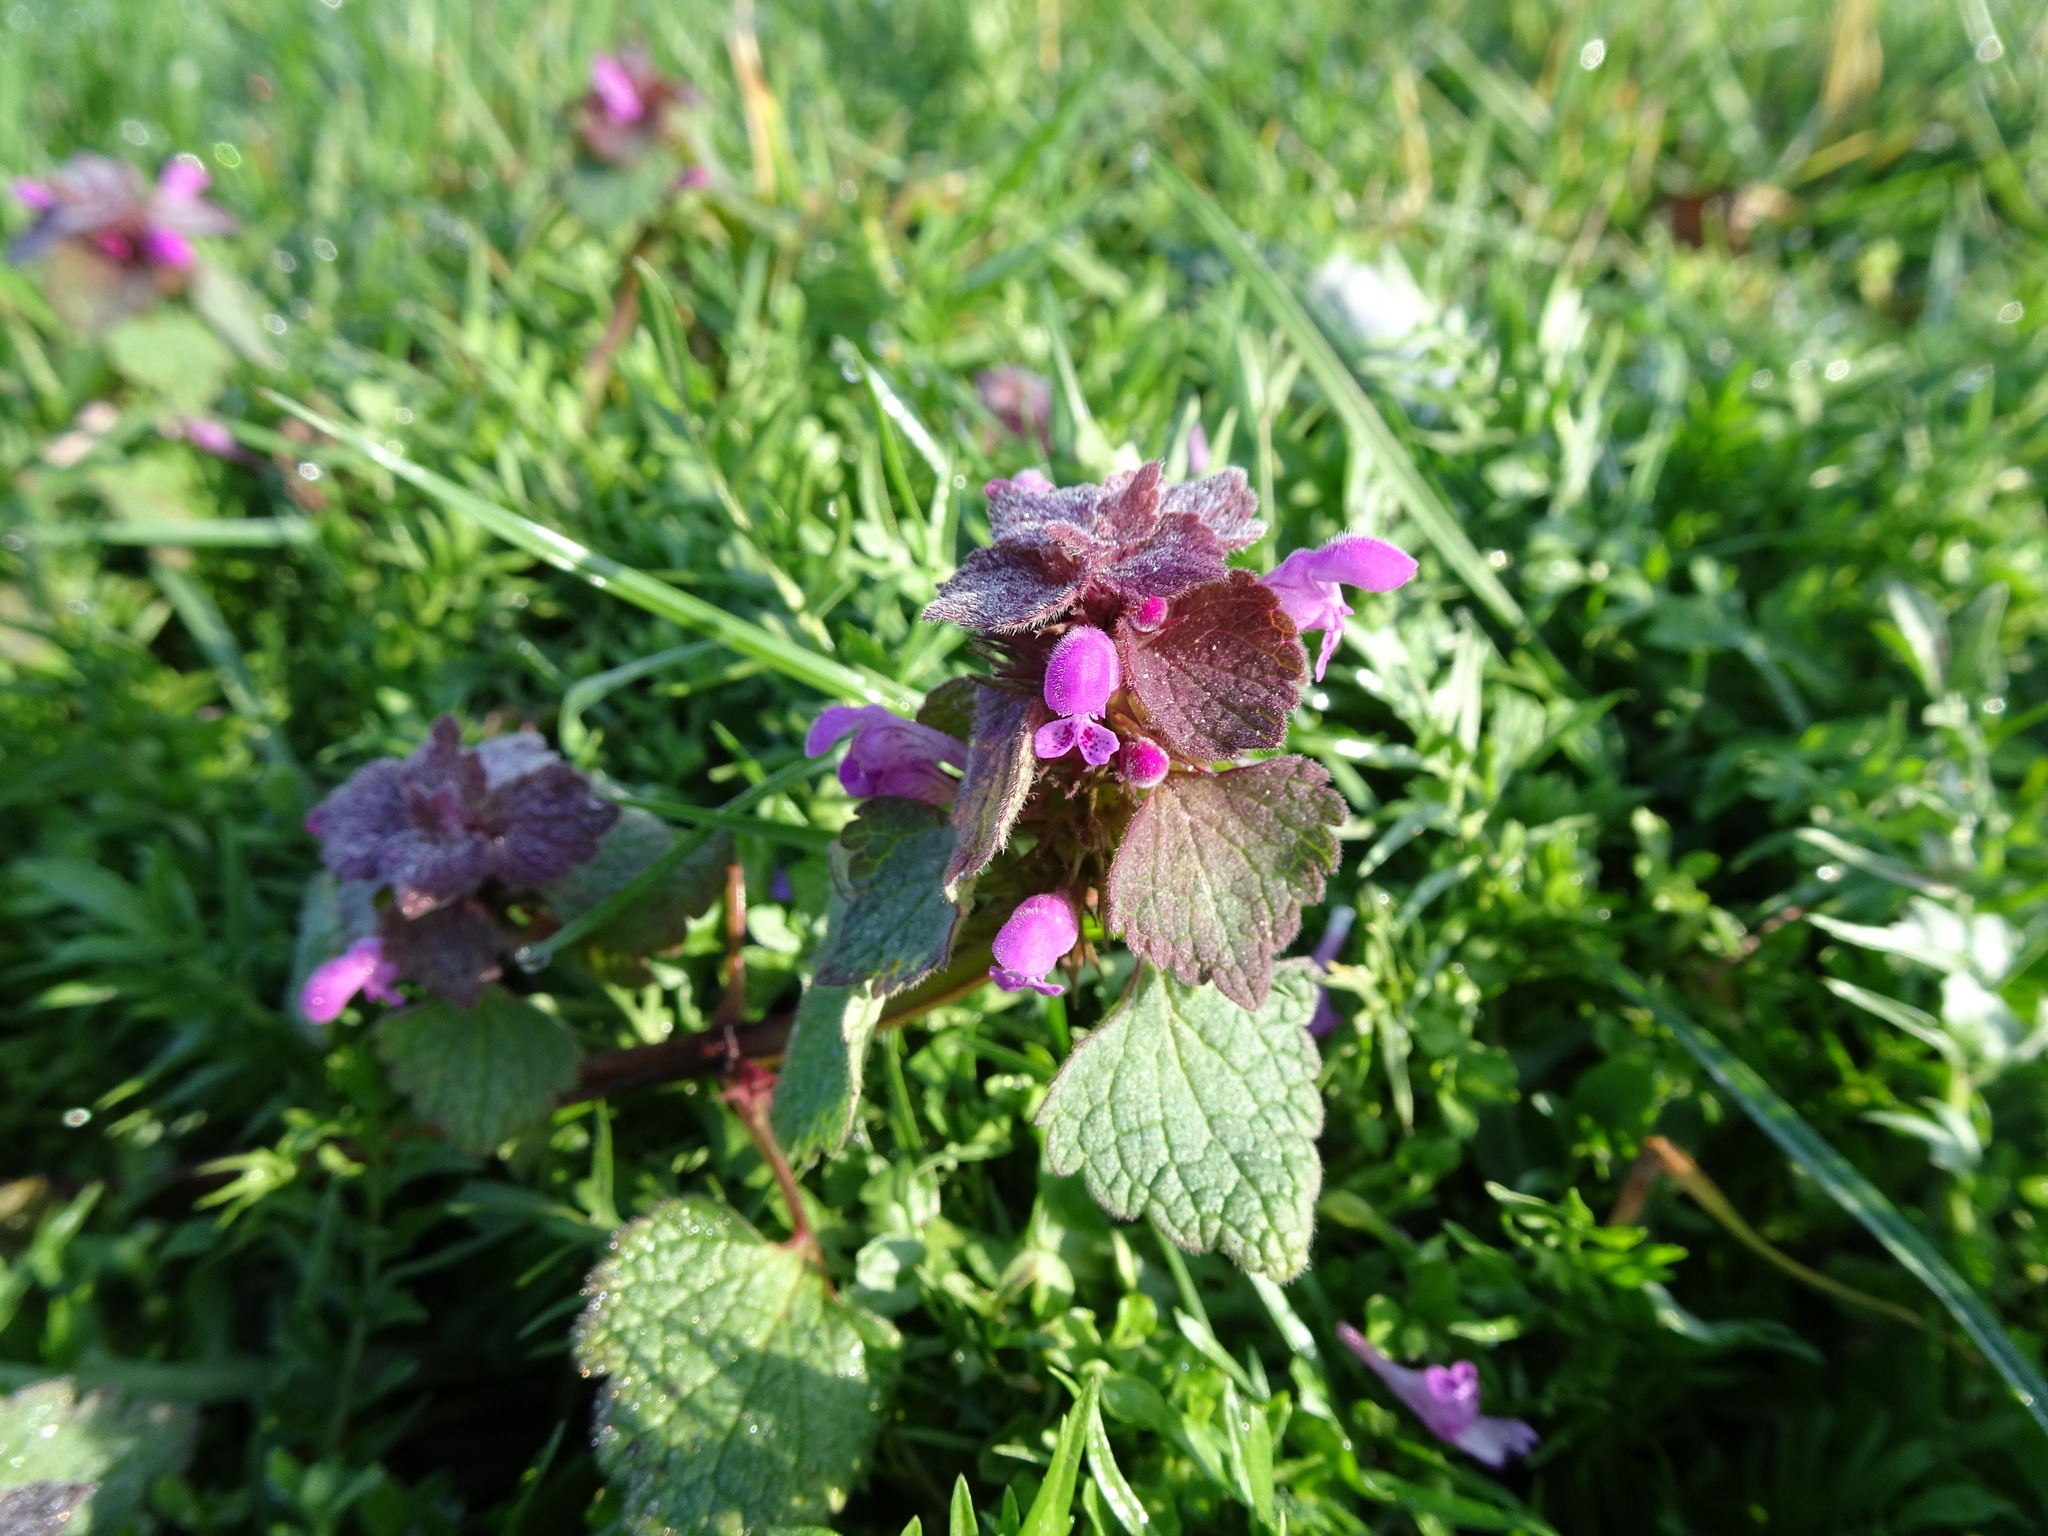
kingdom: Plantae
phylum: Tracheophyta
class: Magnoliopsida
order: Lamiales
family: Lamiaceae
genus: Lamium
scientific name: Lamium purpureum
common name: Red dead-nettle
